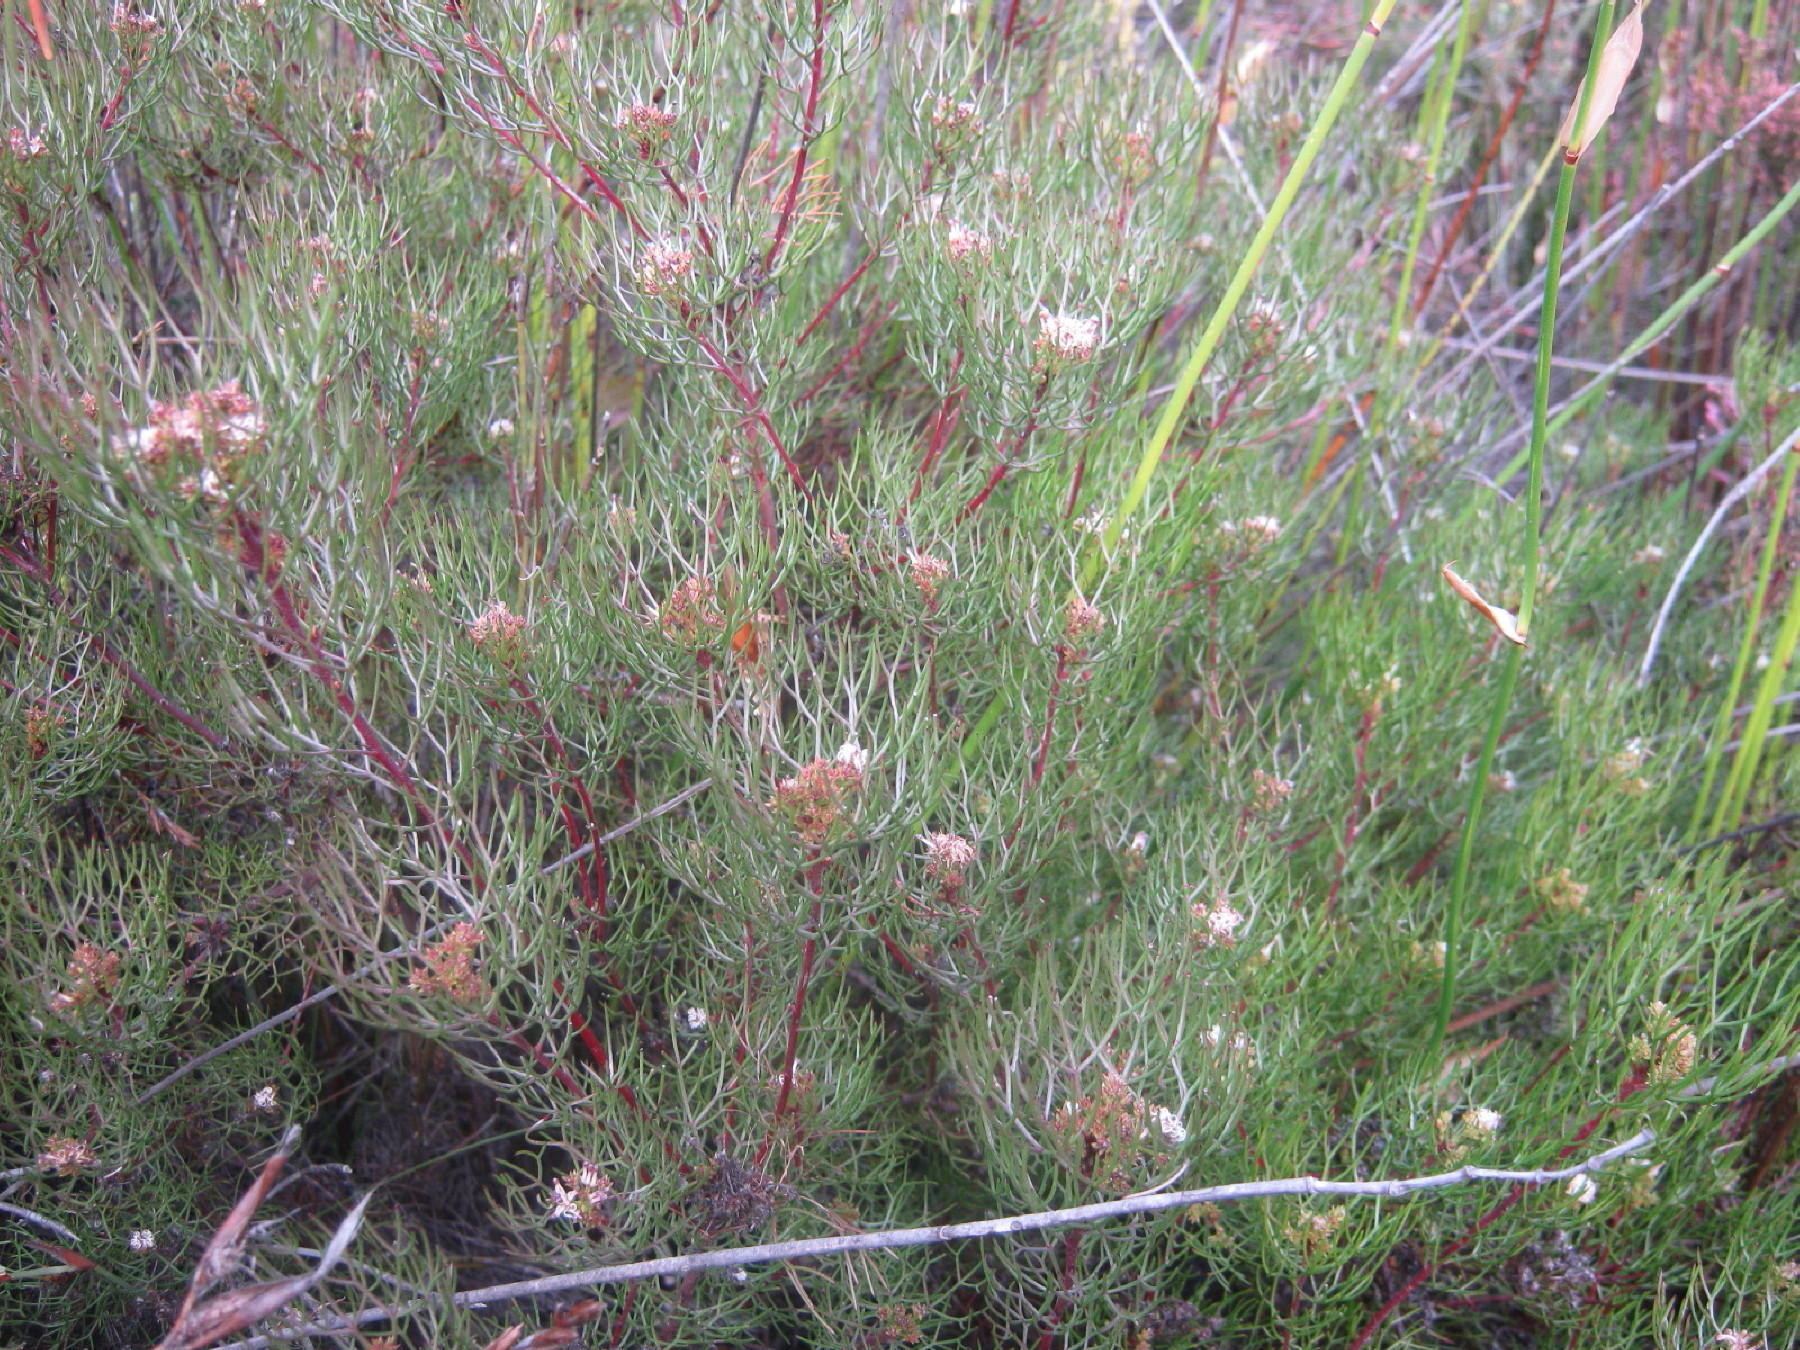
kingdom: Plantae
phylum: Tracheophyta
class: Magnoliopsida
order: Proteales
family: Proteaceae
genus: Serruria
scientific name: Serruria fasciflora
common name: Common pin spiderhead
